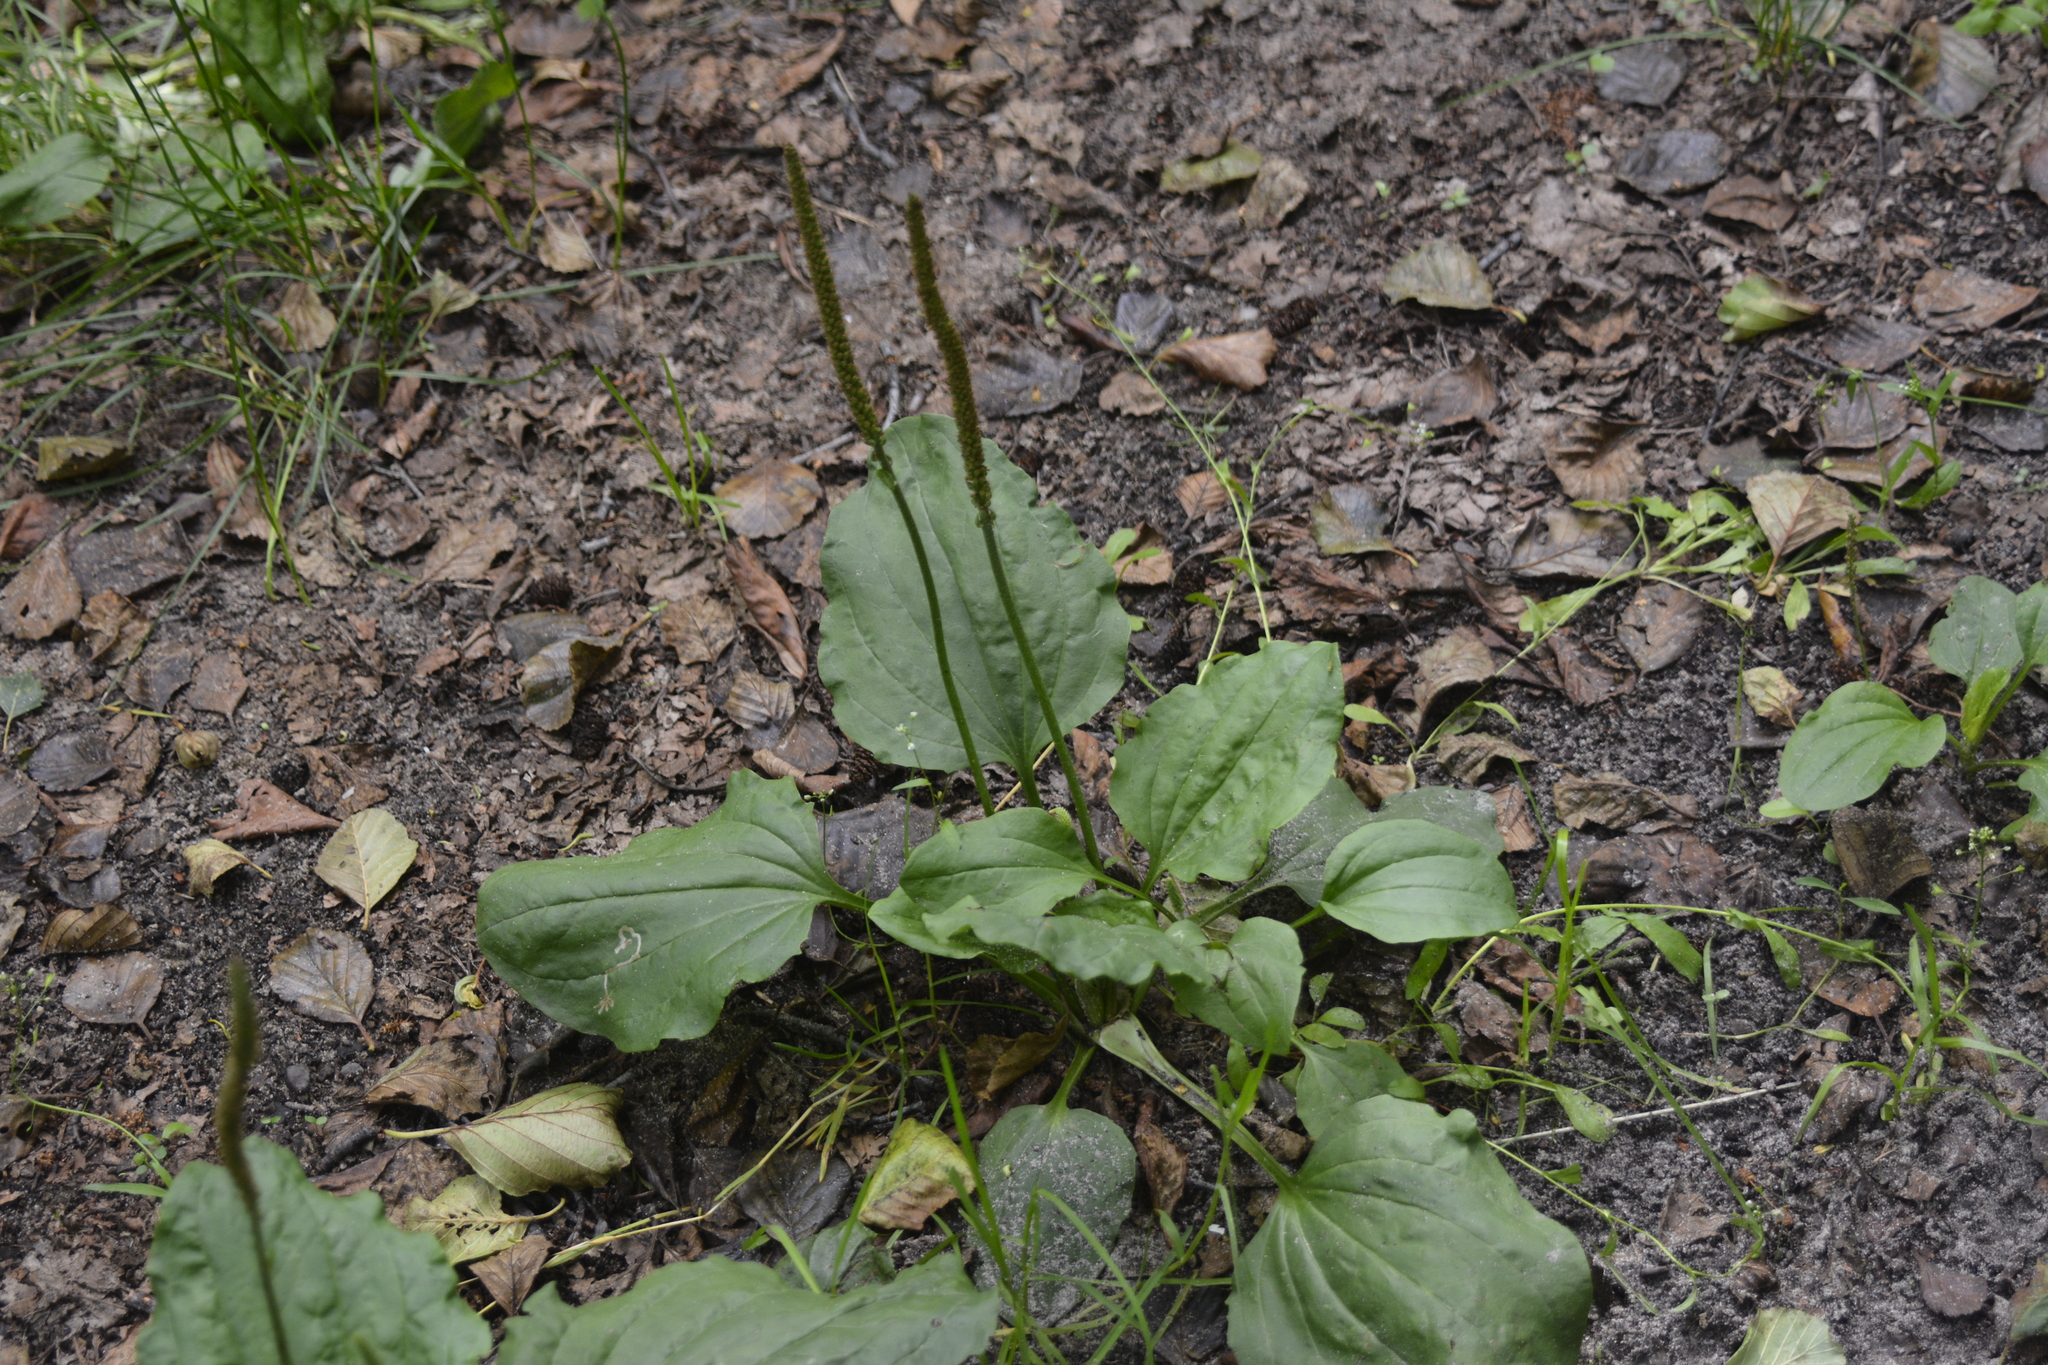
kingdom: Plantae
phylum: Tracheophyta
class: Magnoliopsida
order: Lamiales
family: Plantaginaceae
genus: Plantago
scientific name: Plantago major
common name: Common plantain
